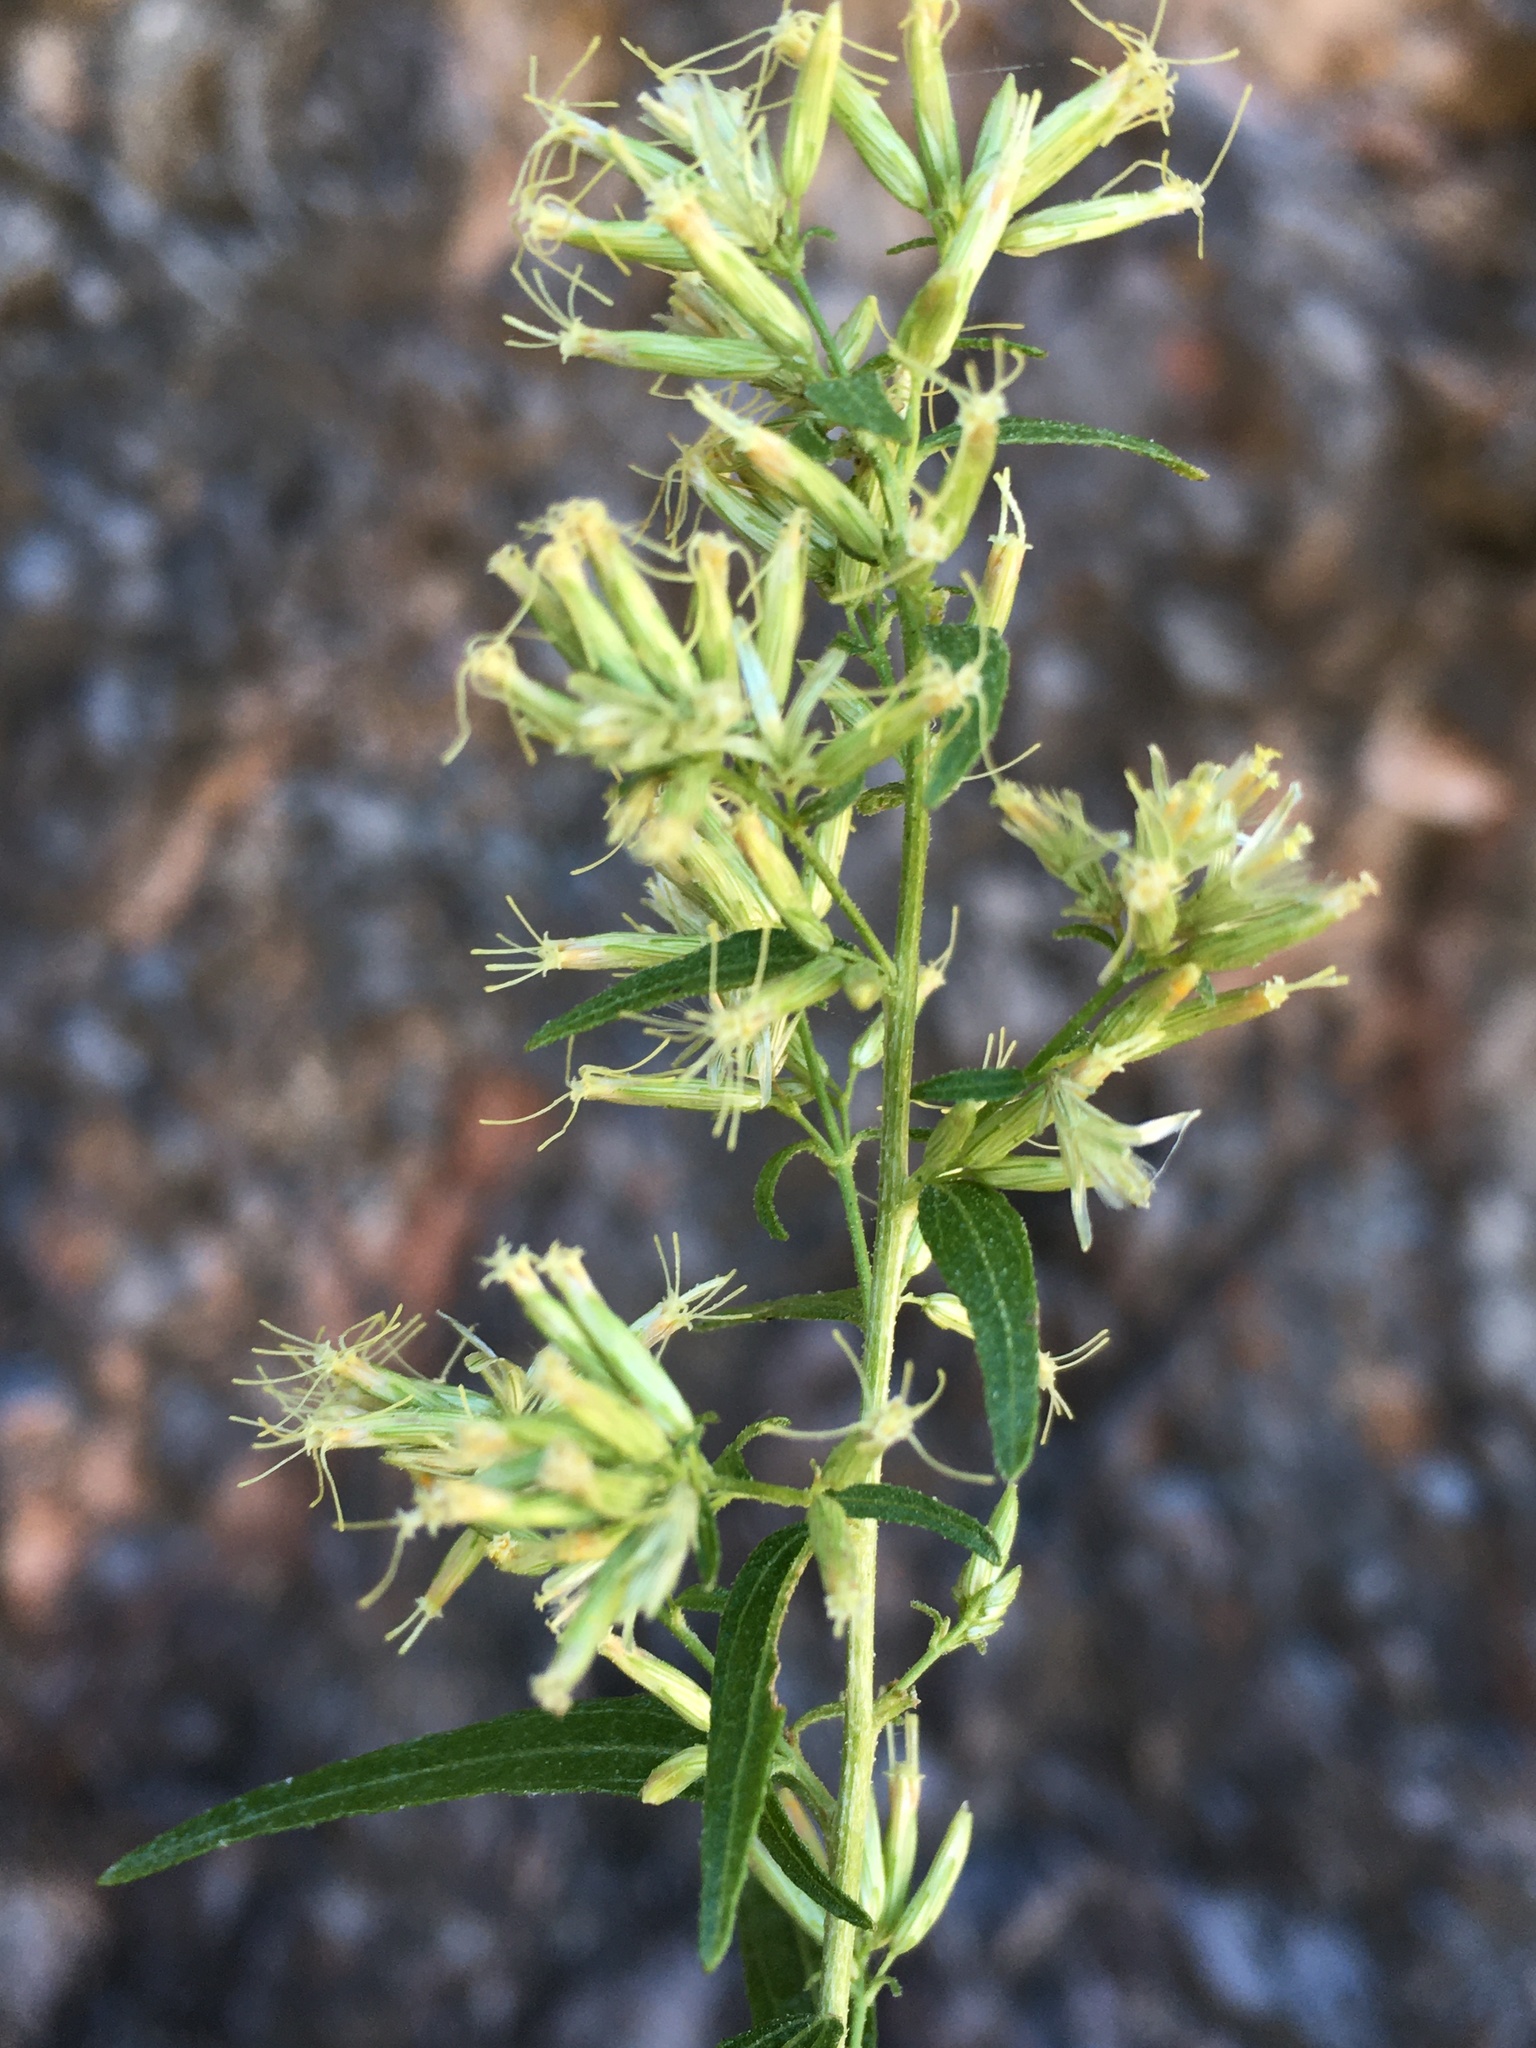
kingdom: Plantae
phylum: Tracheophyta
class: Magnoliopsida
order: Asterales
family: Asteraceae
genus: Brickellia
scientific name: Brickellia longifolia
